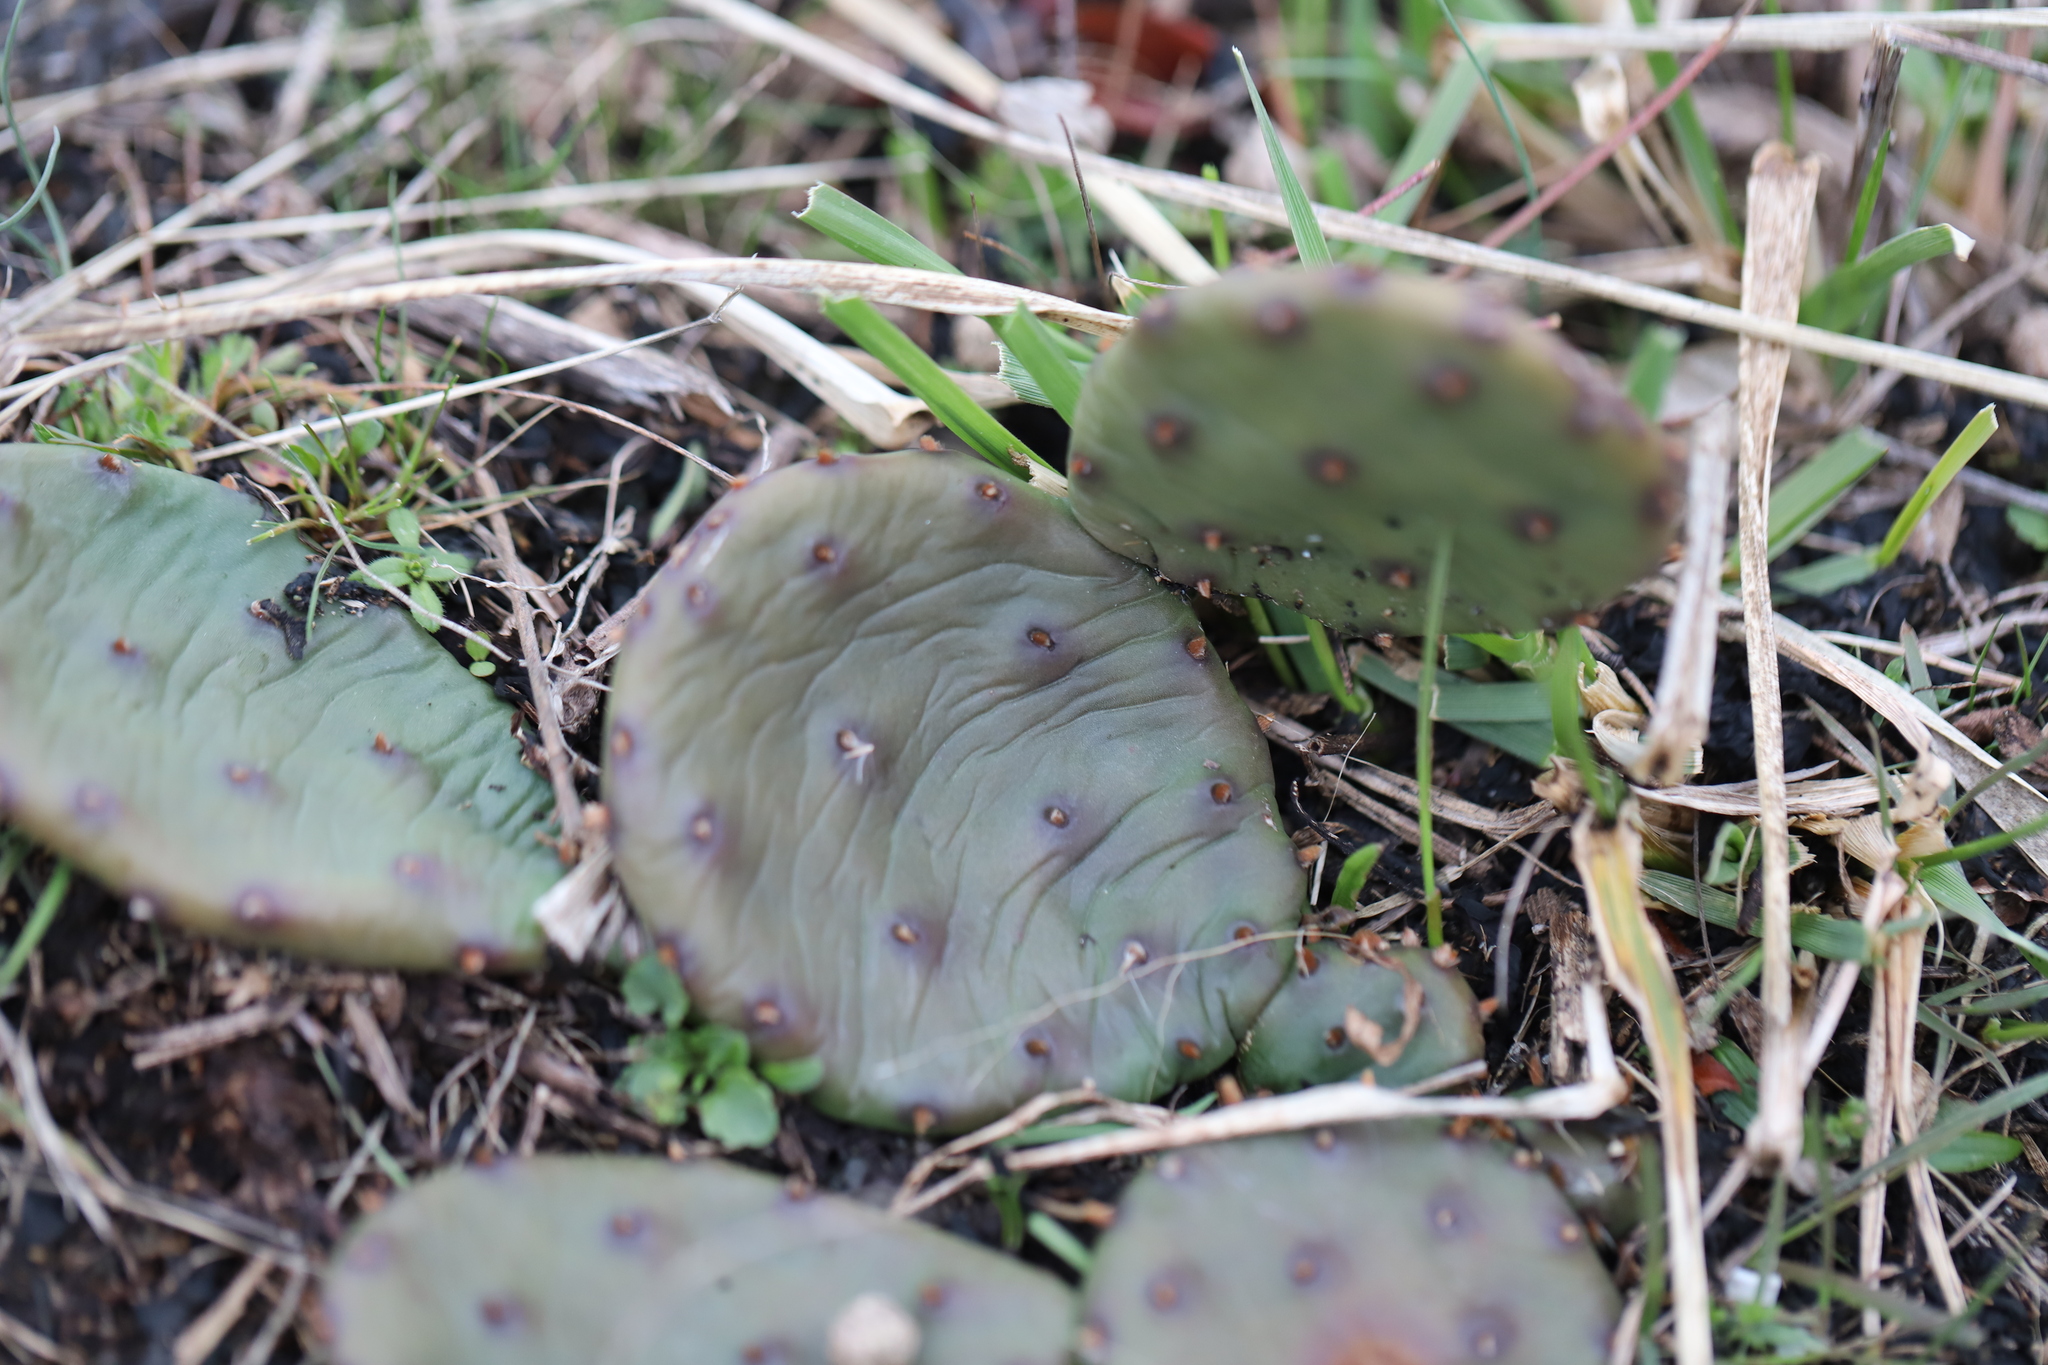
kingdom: Plantae
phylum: Tracheophyta
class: Magnoliopsida
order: Caryophyllales
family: Cactaceae
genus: Opuntia
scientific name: Opuntia humifusa
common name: Eastern prickly-pear
